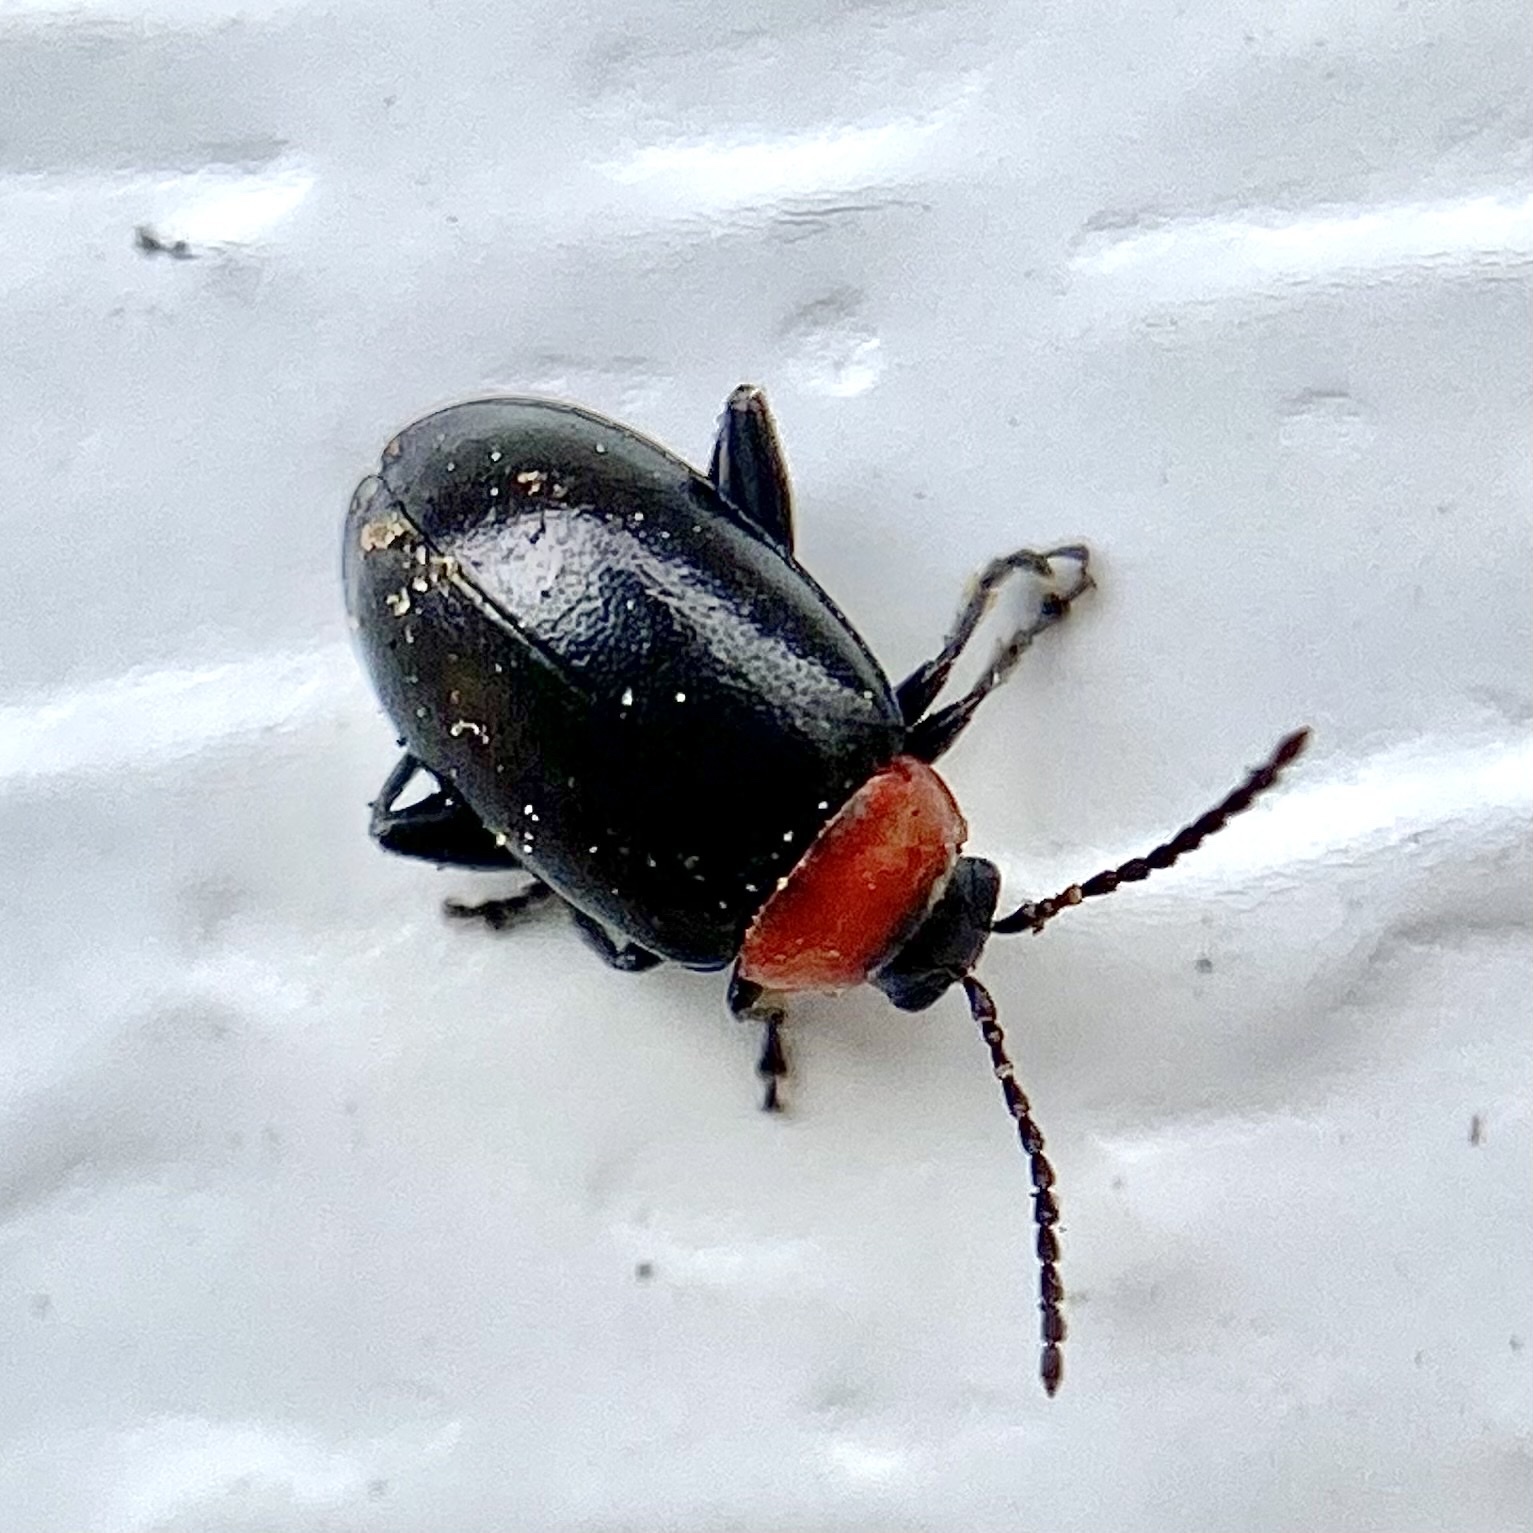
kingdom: Animalia
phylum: Arthropoda
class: Insecta
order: Coleoptera
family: Chrysomelidae
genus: Disonycha
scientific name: Disonycha xanthomelas
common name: Spinach flea beetle
